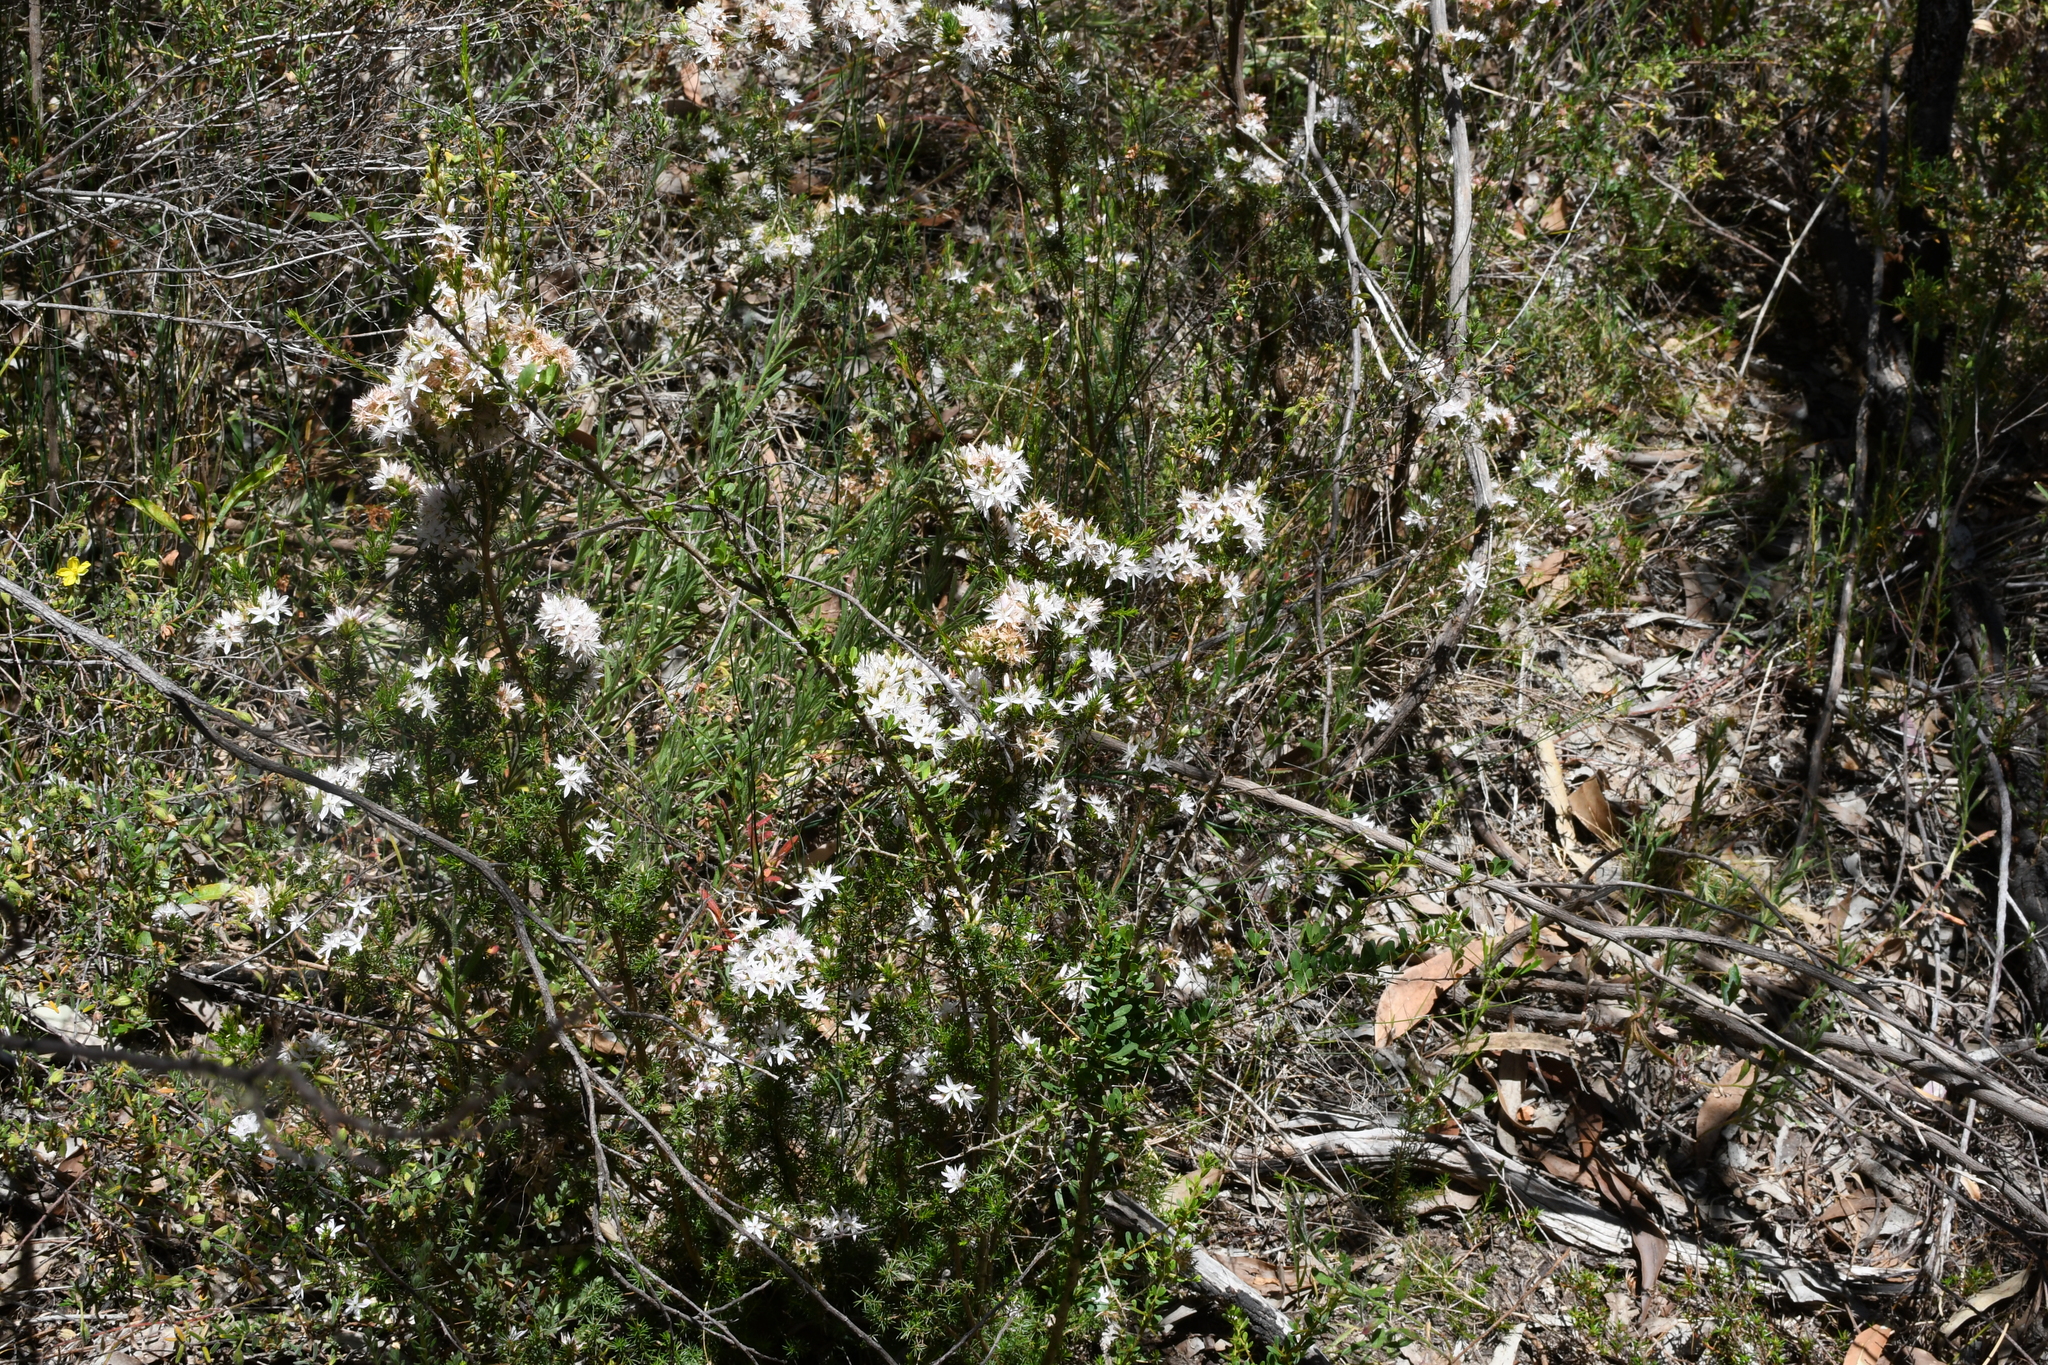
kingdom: Plantae
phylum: Tracheophyta
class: Magnoliopsida
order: Myrtales
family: Myrtaceae
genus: Calytrix
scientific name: Calytrix tetragona
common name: Common fringe myrtle
